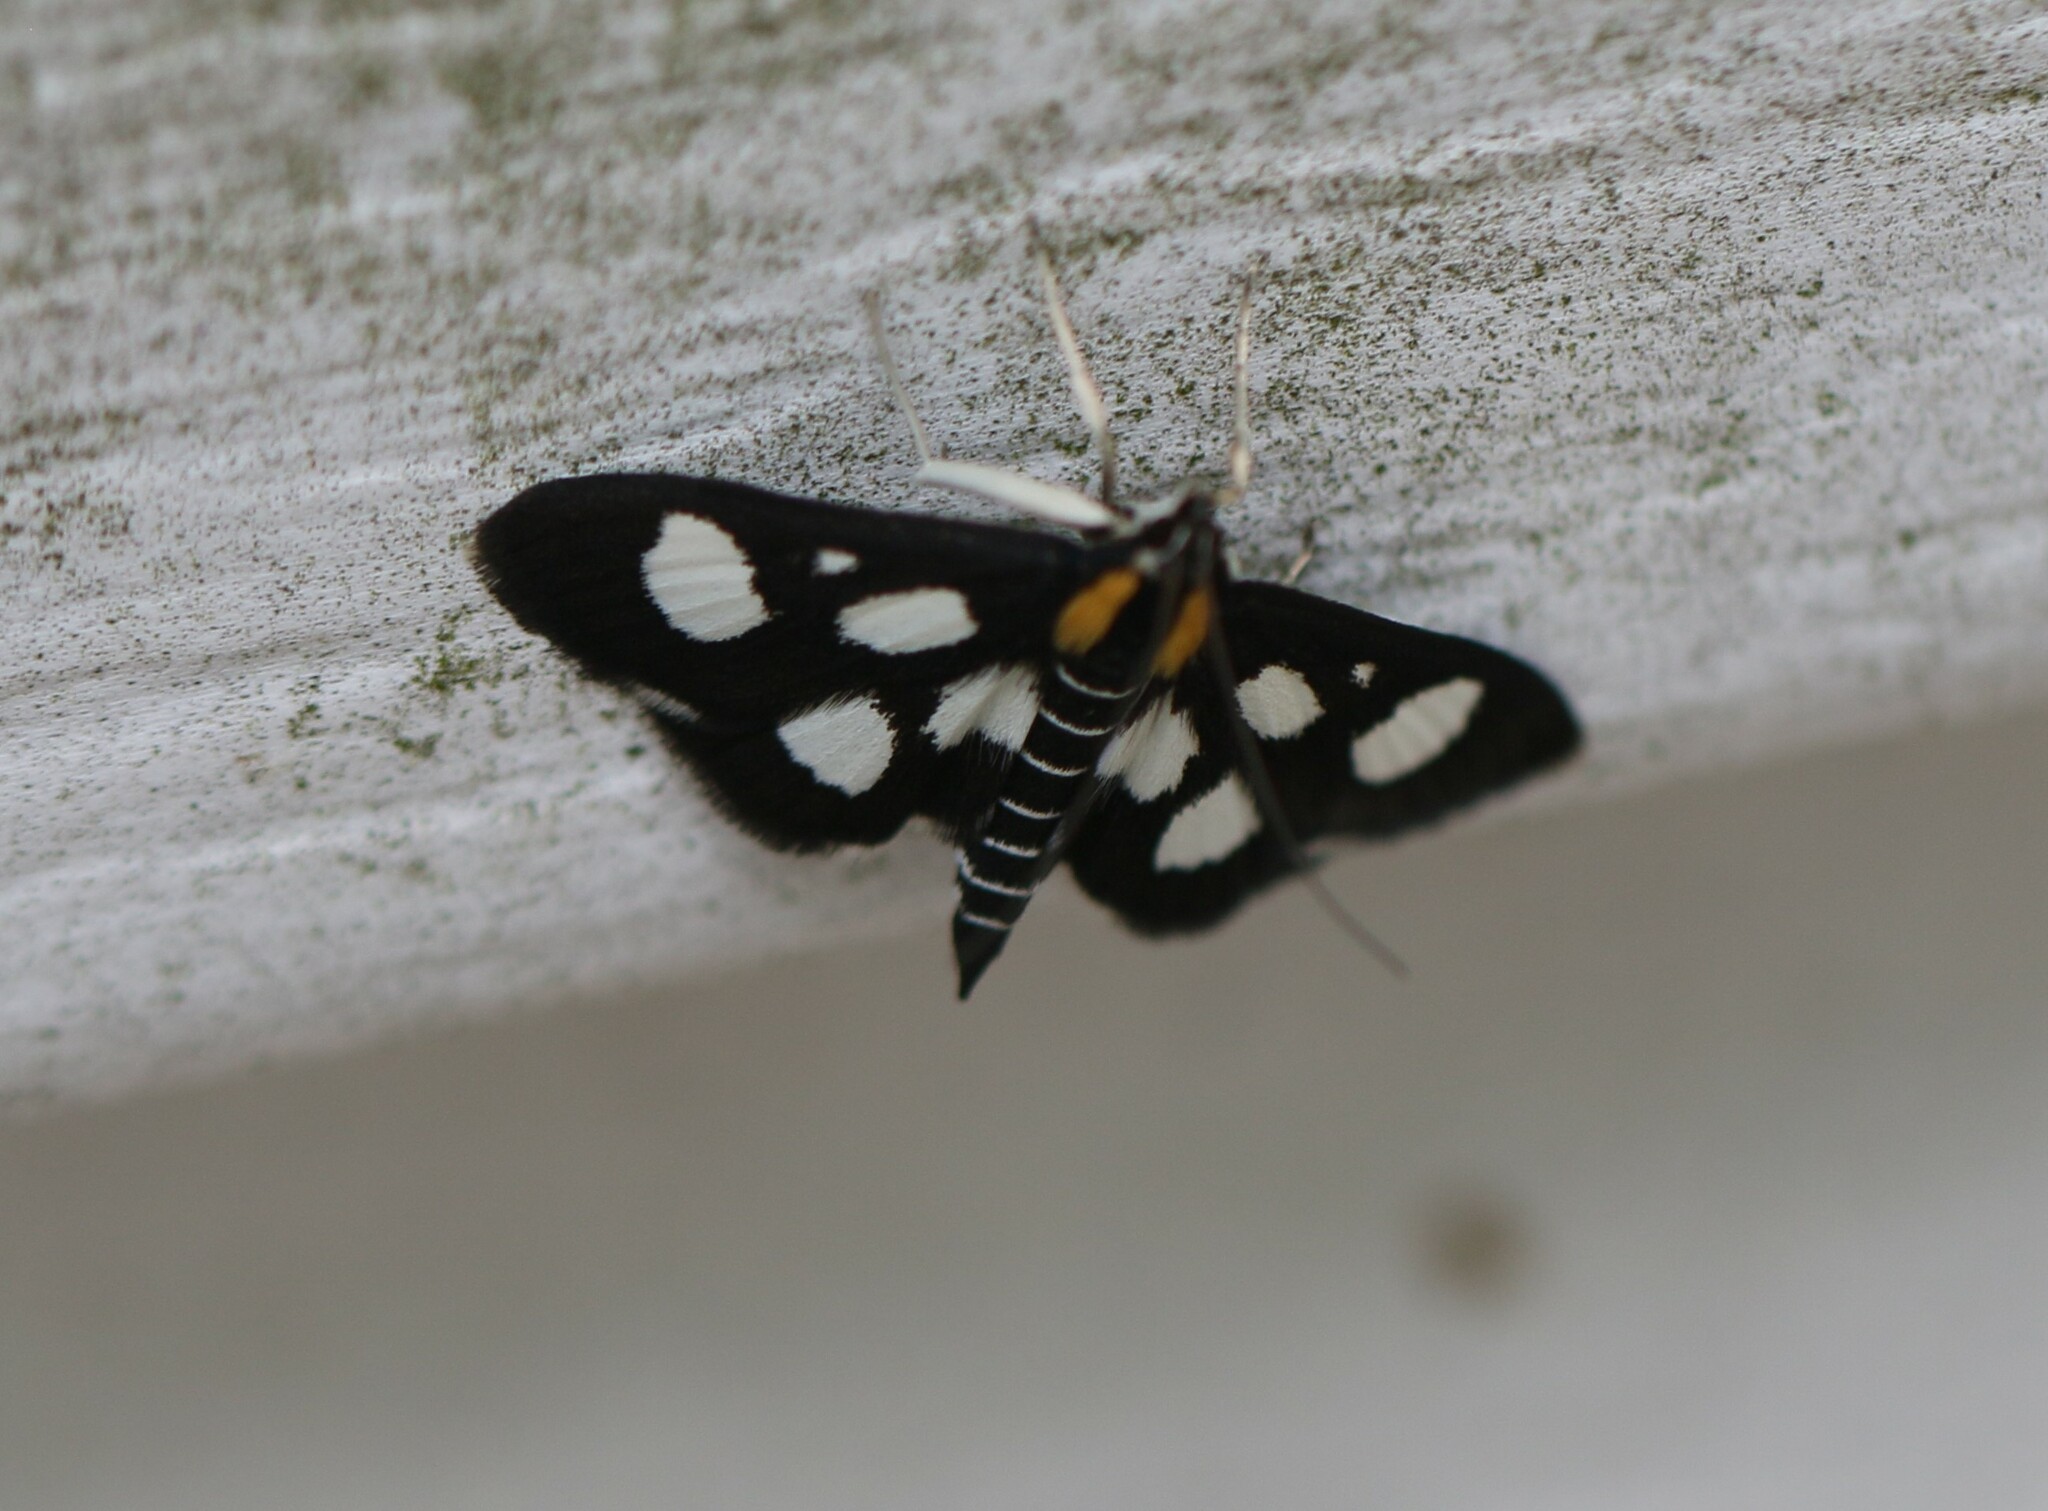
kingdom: Animalia
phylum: Arthropoda
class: Insecta
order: Lepidoptera
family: Crambidae
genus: Anania
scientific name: Anania funebris
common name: White-spotted sable moth
